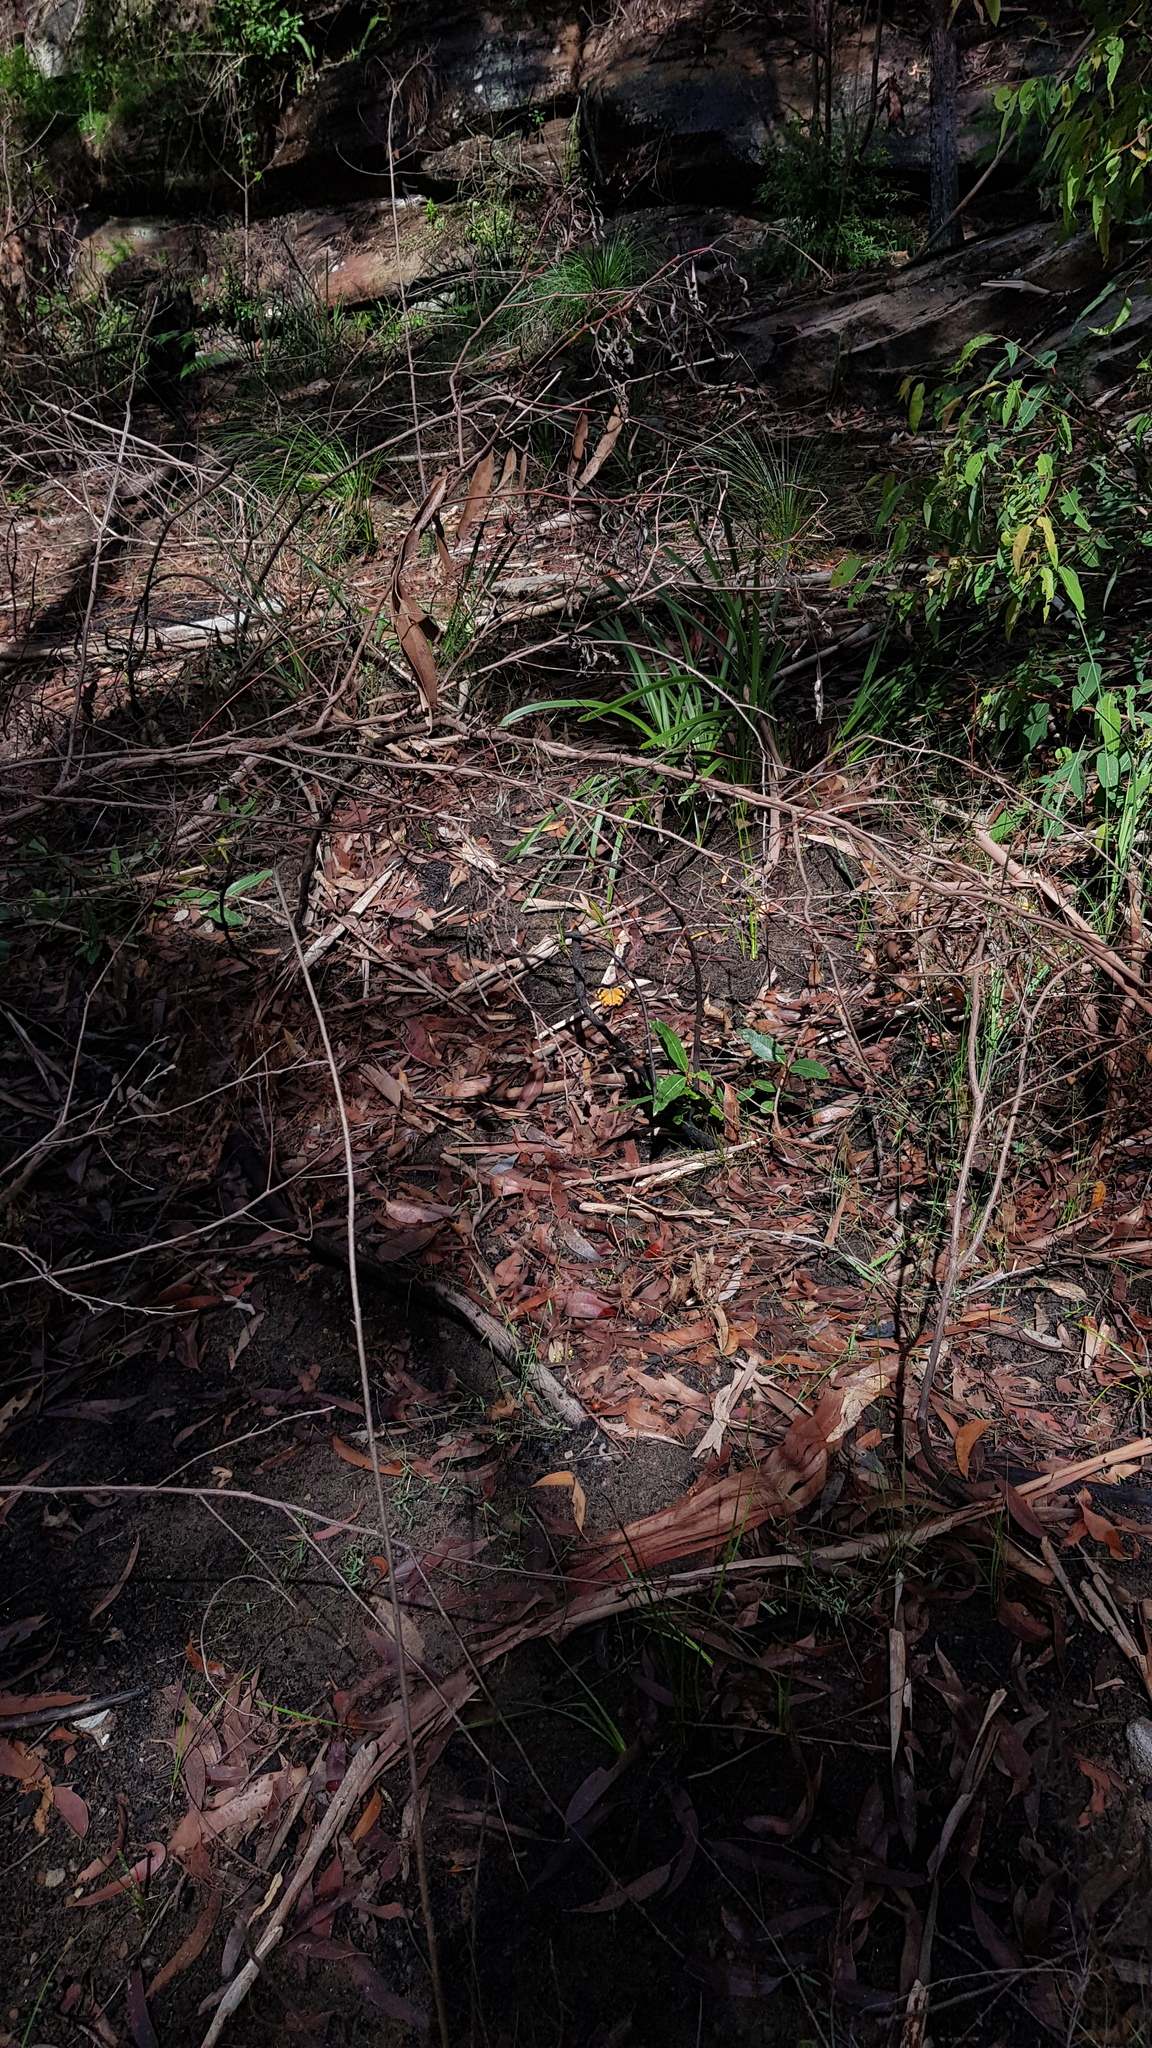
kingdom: Animalia
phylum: Arthropoda
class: Insecta
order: Lepidoptera
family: Nymphalidae
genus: Heteronympha
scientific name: Heteronympha merope
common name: Common brown
